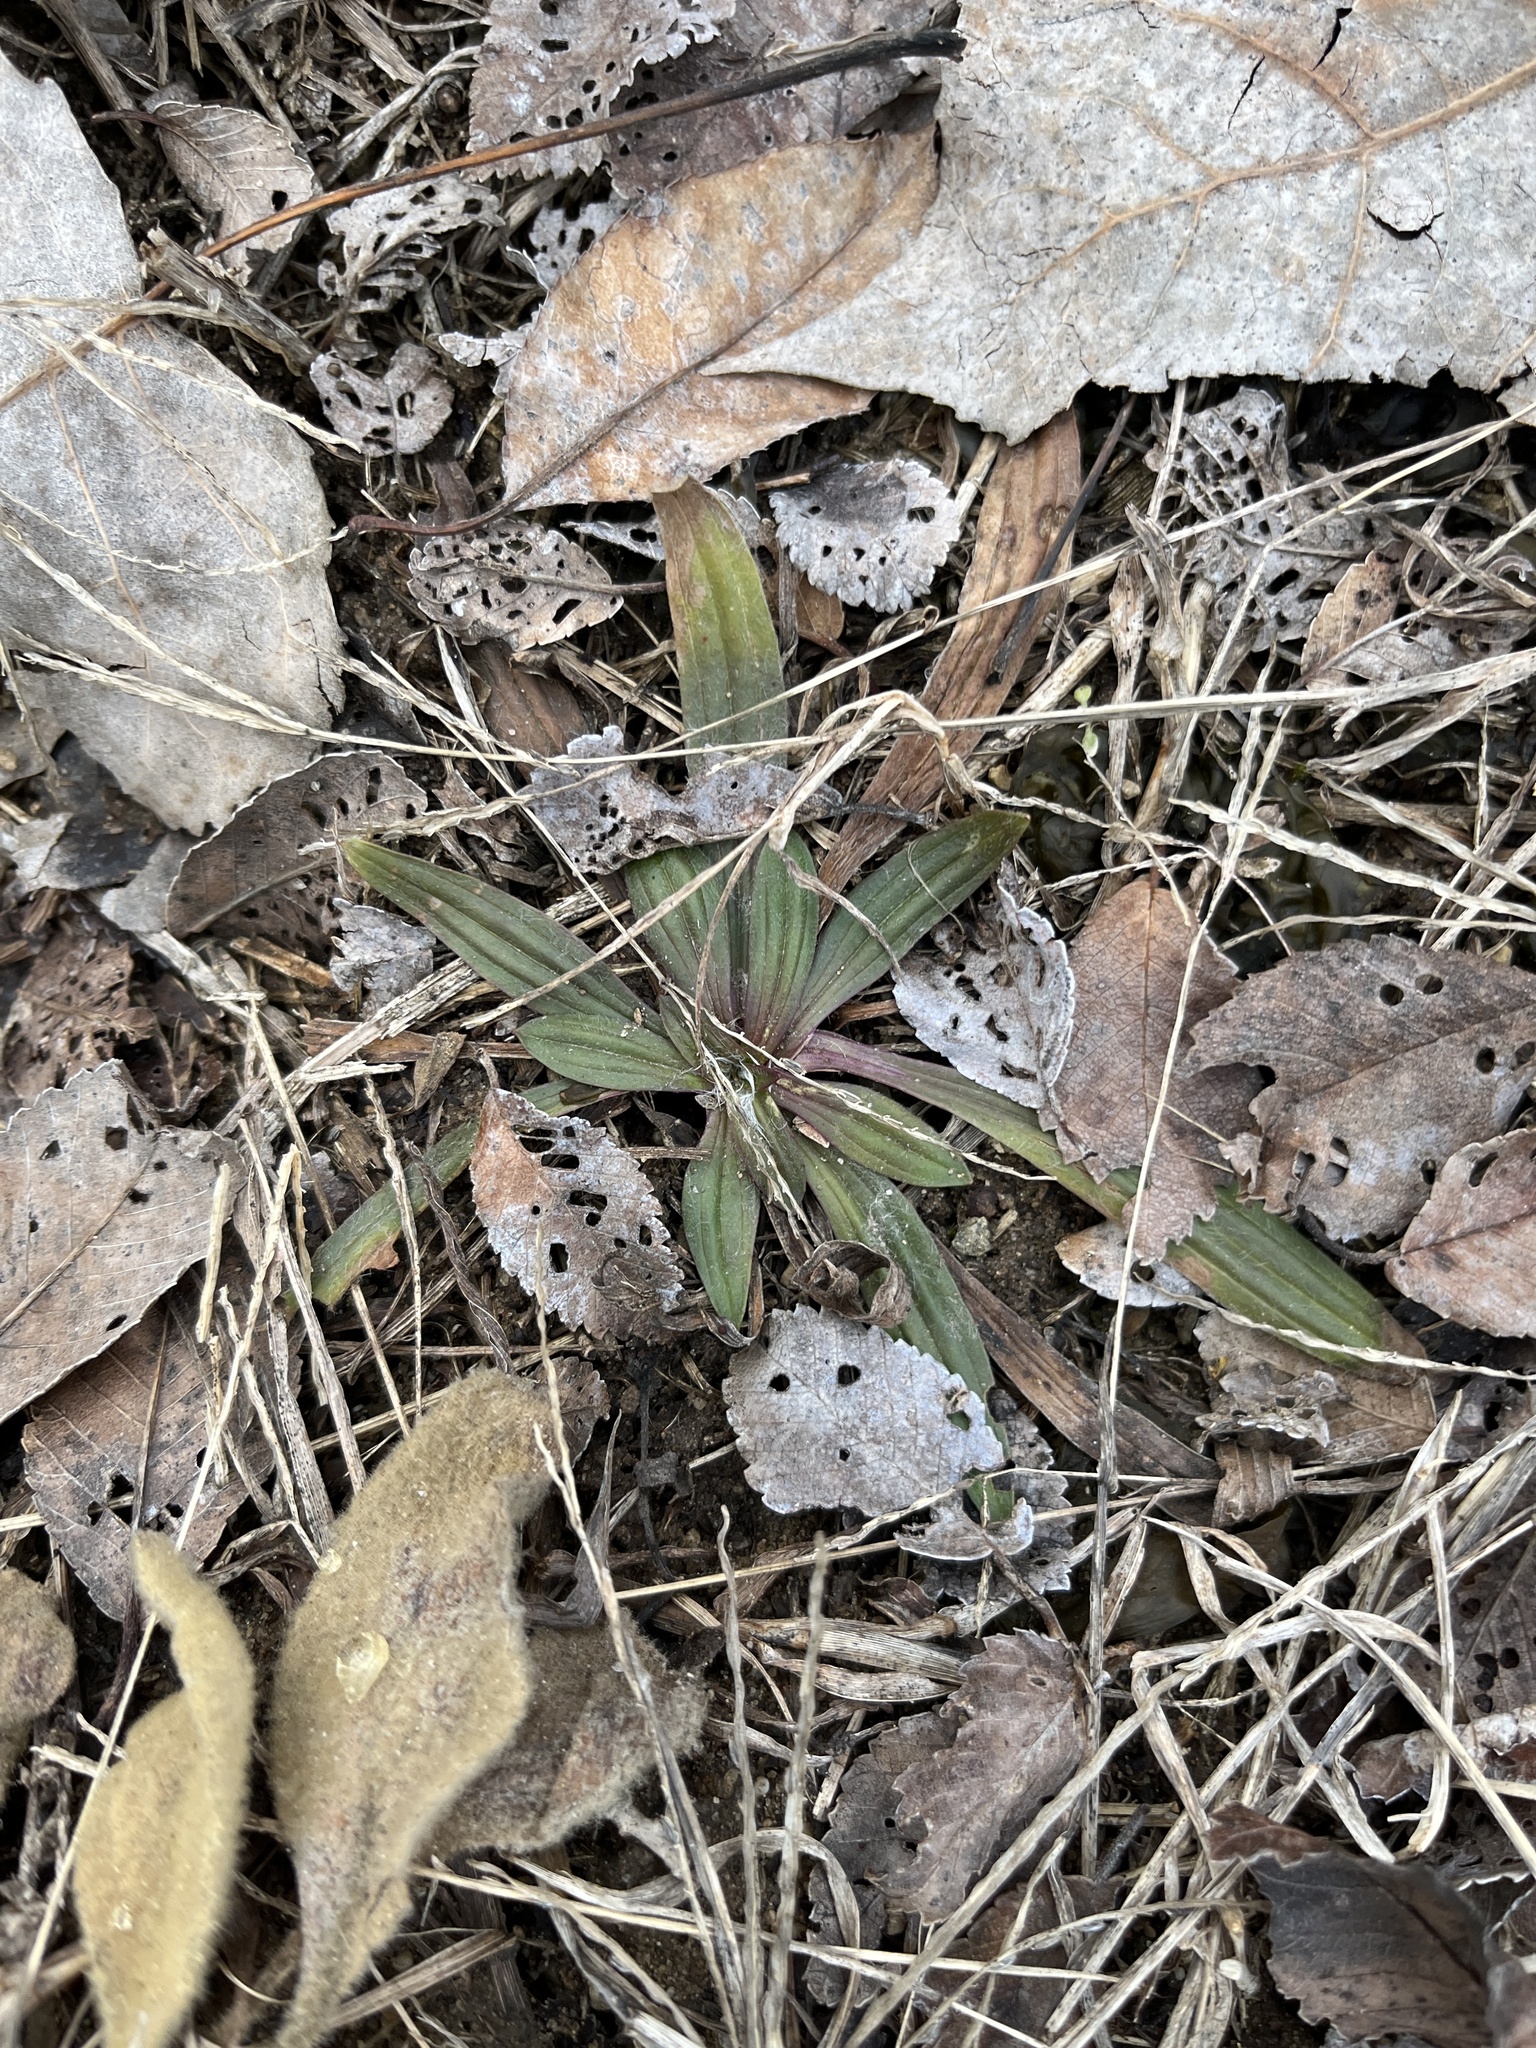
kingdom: Plantae
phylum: Tracheophyta
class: Magnoliopsida
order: Lamiales
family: Plantaginaceae
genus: Plantago
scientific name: Plantago lanceolata
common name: Ribwort plantain
